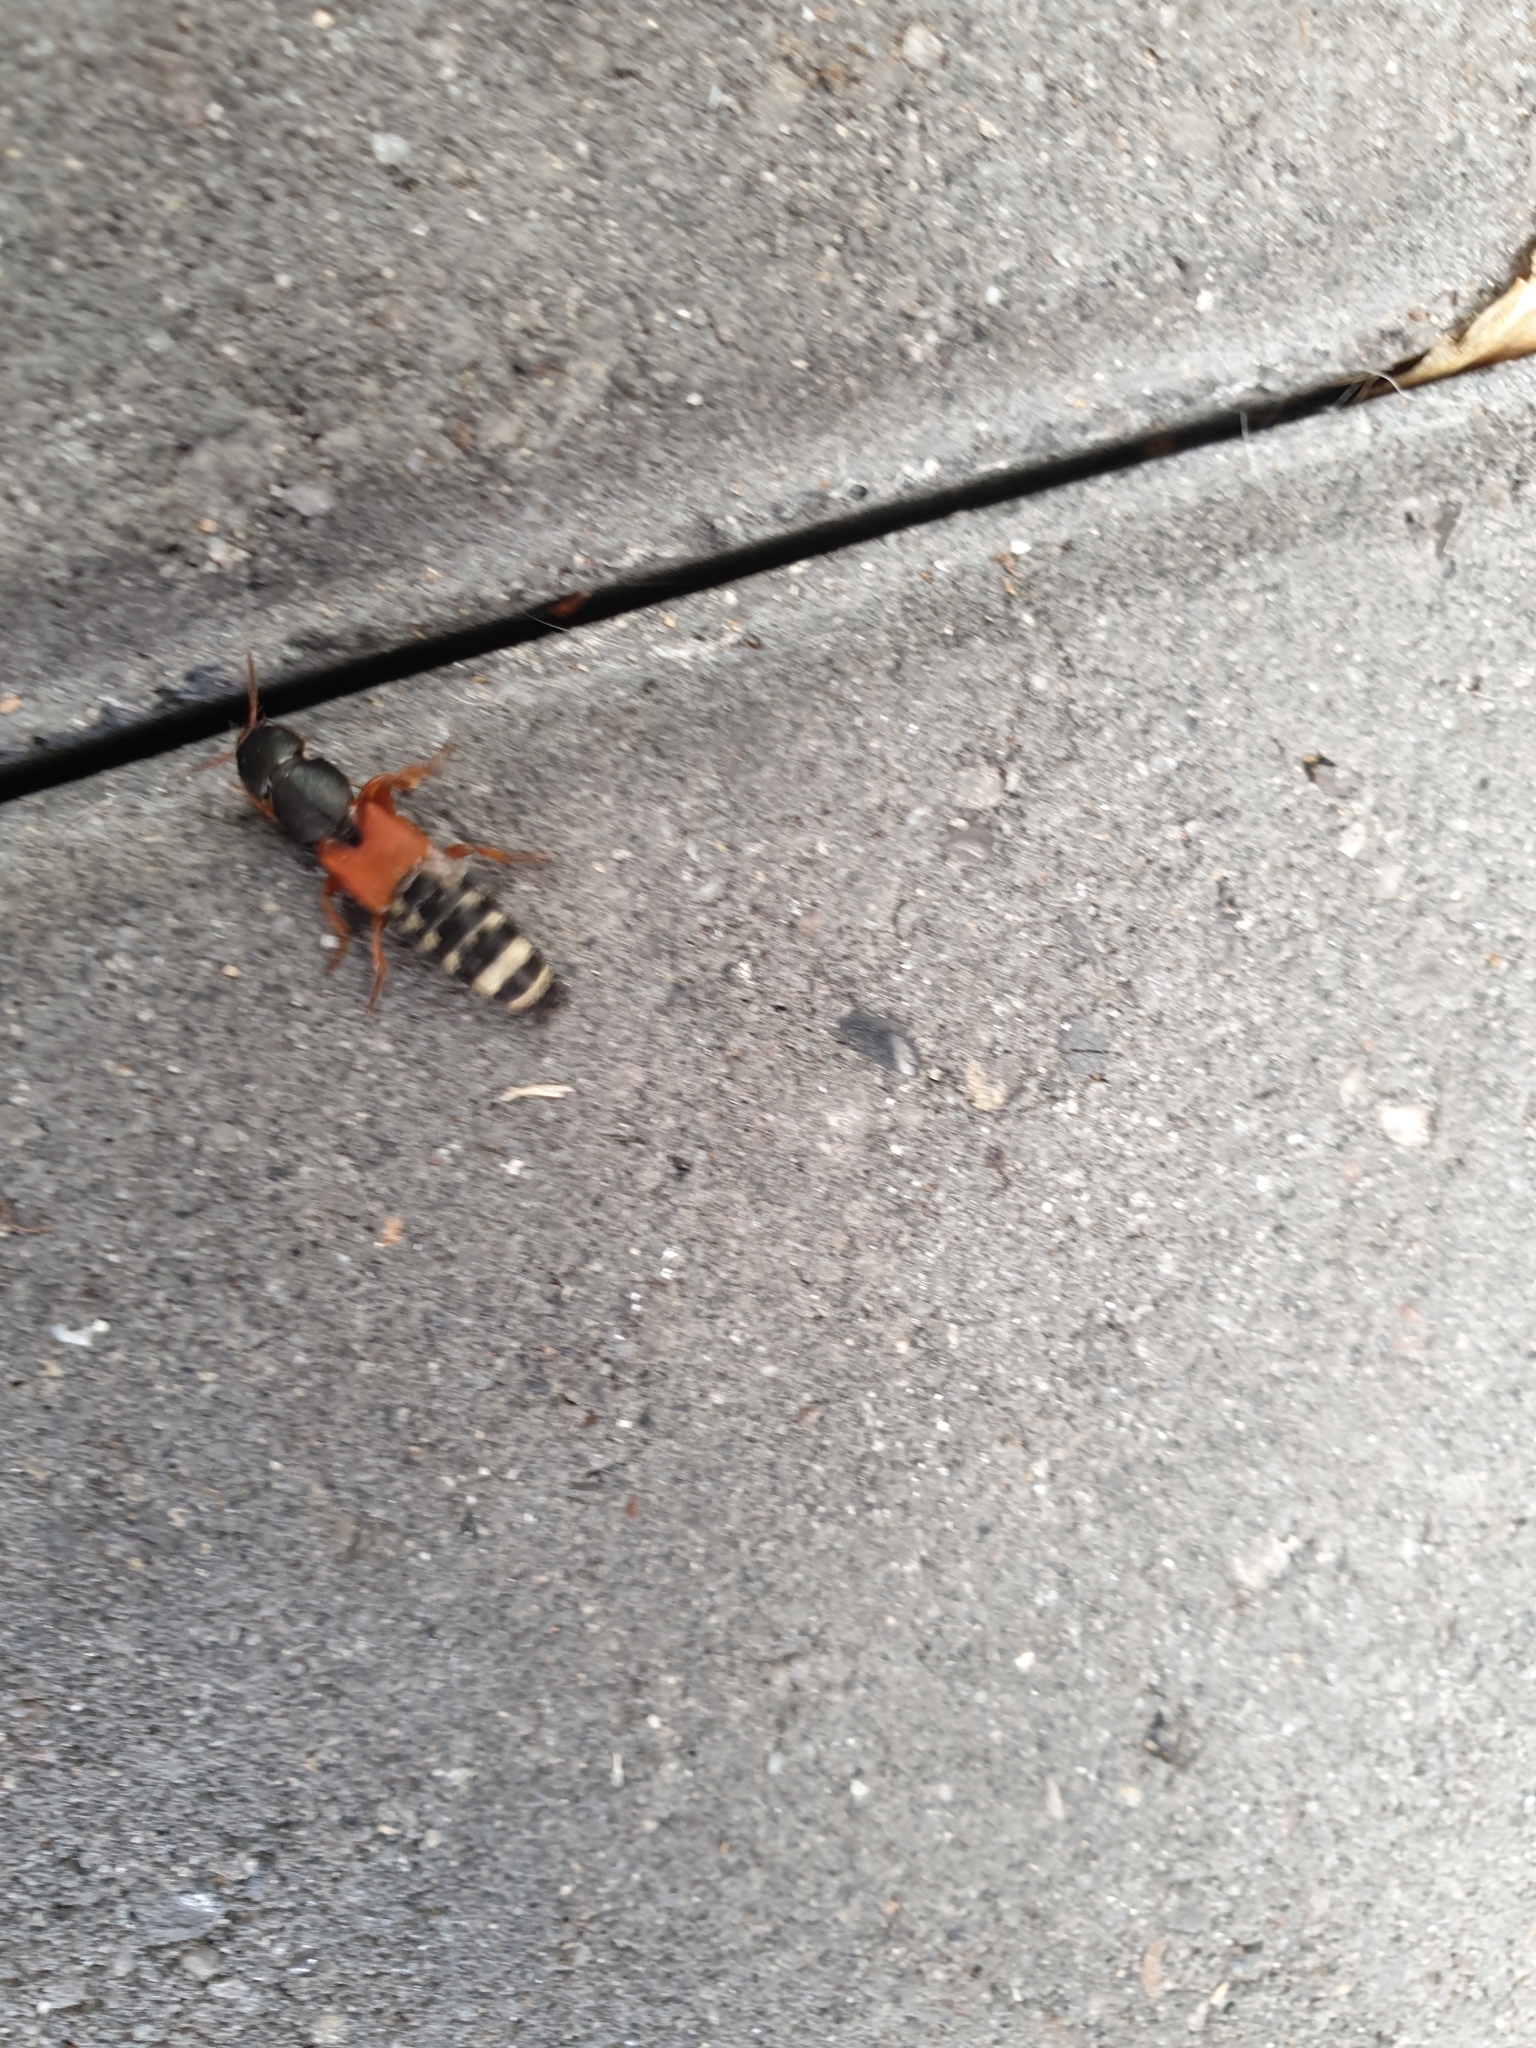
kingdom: Animalia
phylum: Arthropoda
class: Insecta
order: Coleoptera
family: Staphylinidae
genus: Platydracus
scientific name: Platydracus stercorarius
